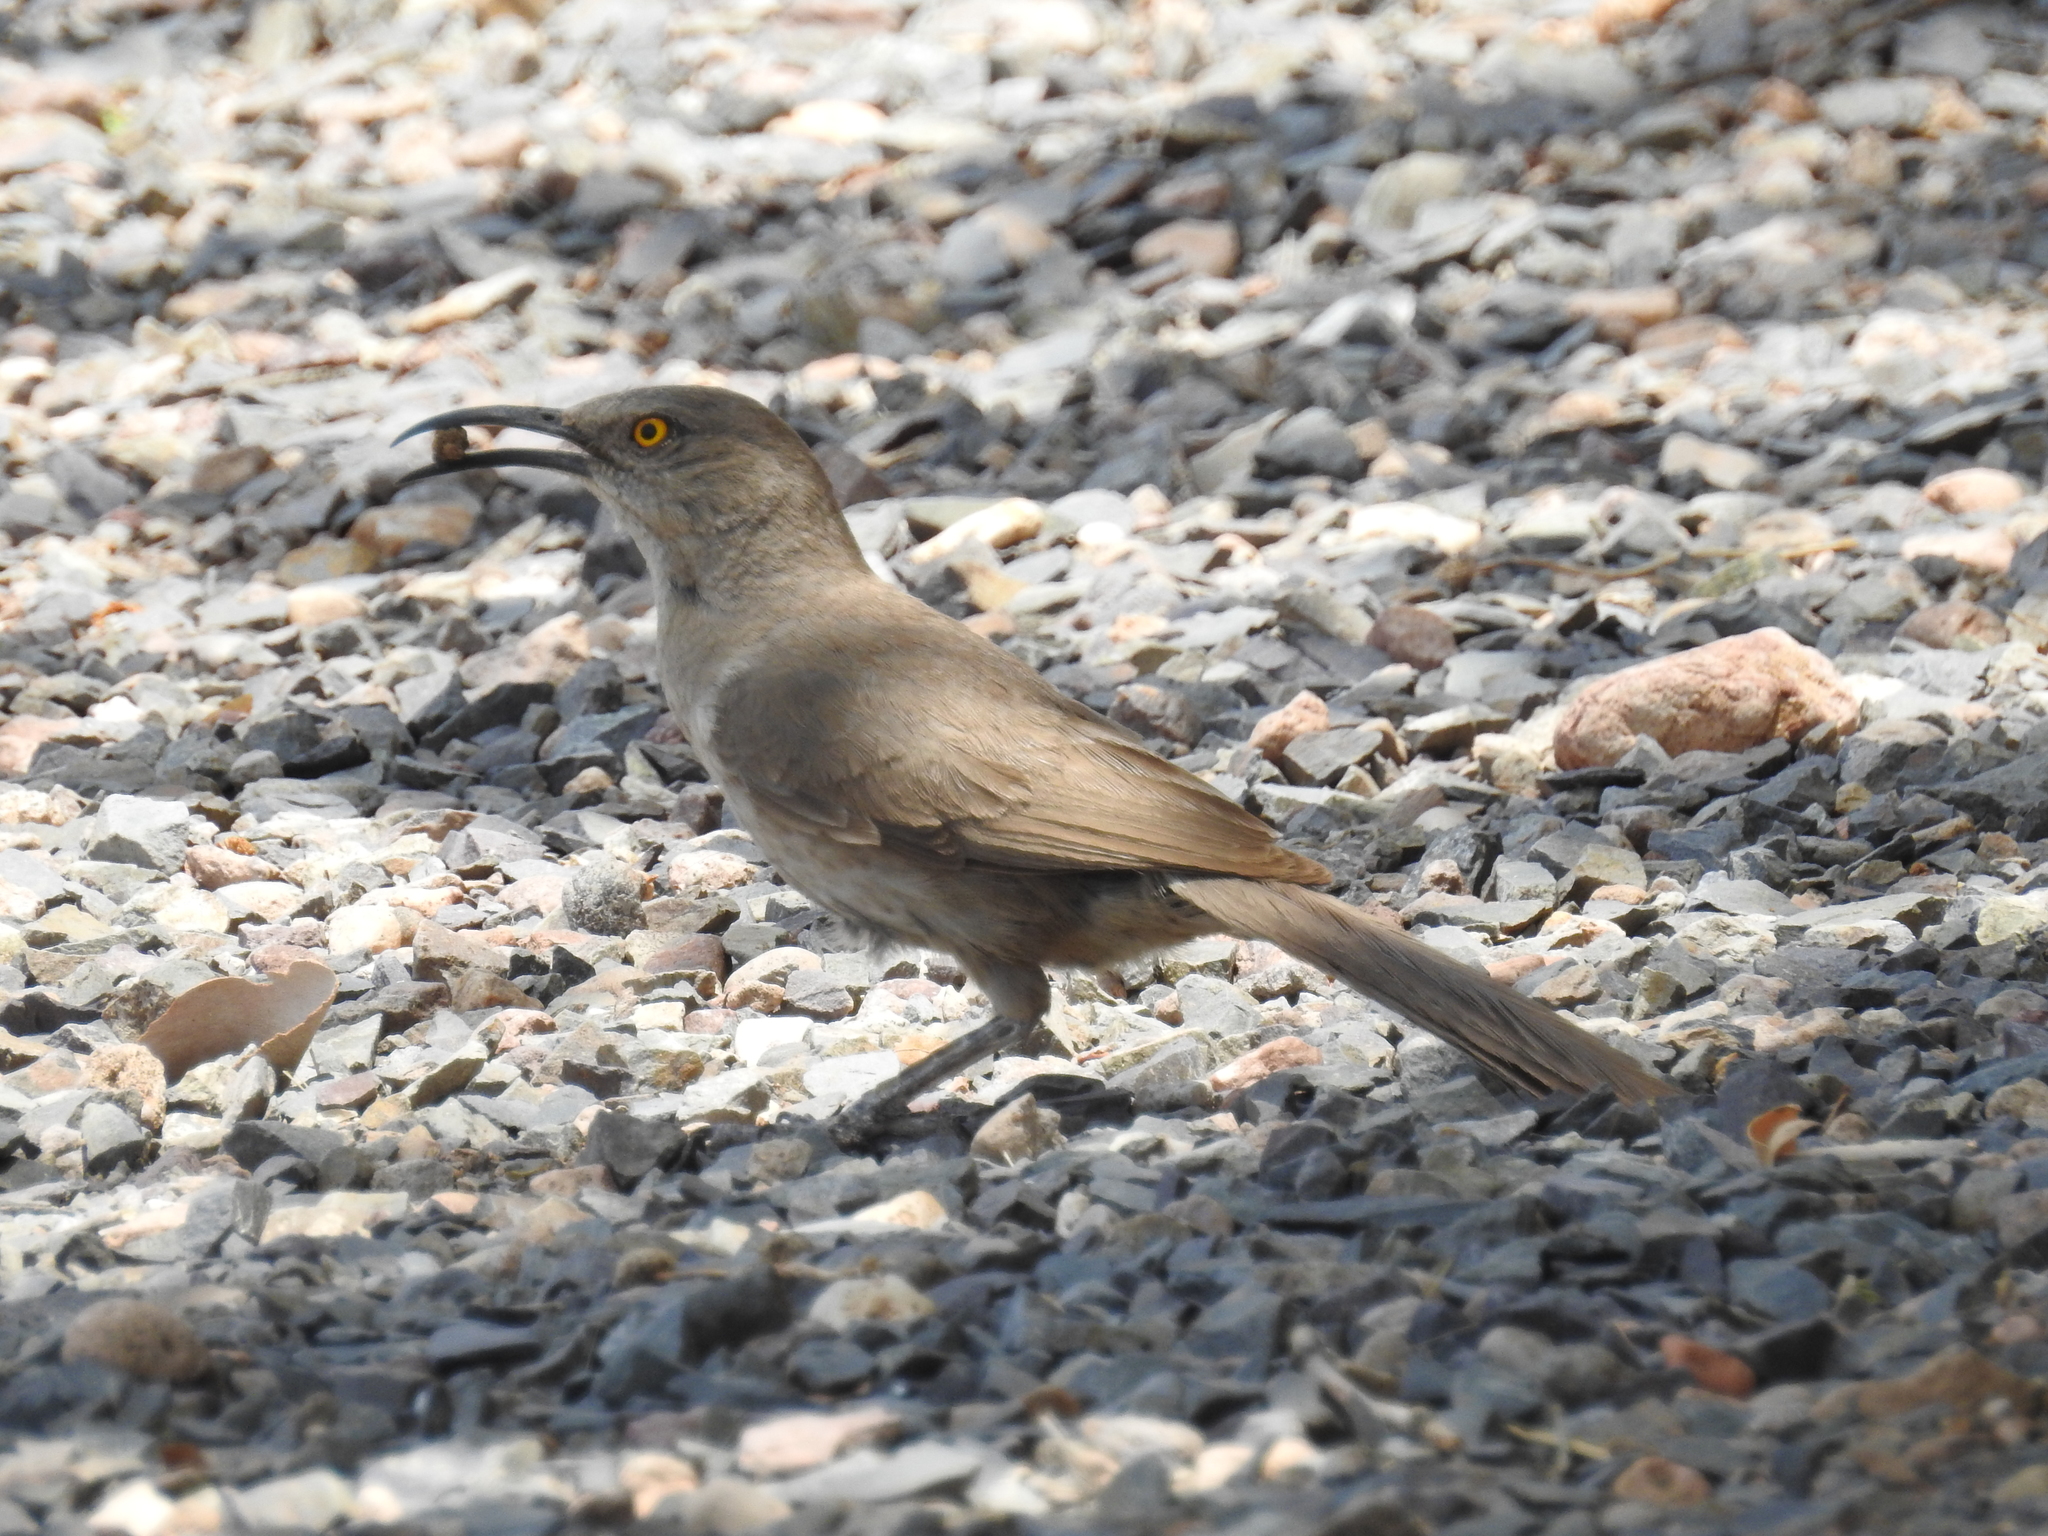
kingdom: Animalia
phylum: Chordata
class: Aves
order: Passeriformes
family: Mimidae
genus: Toxostoma
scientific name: Toxostoma curvirostre
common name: Curve-billed thrasher
